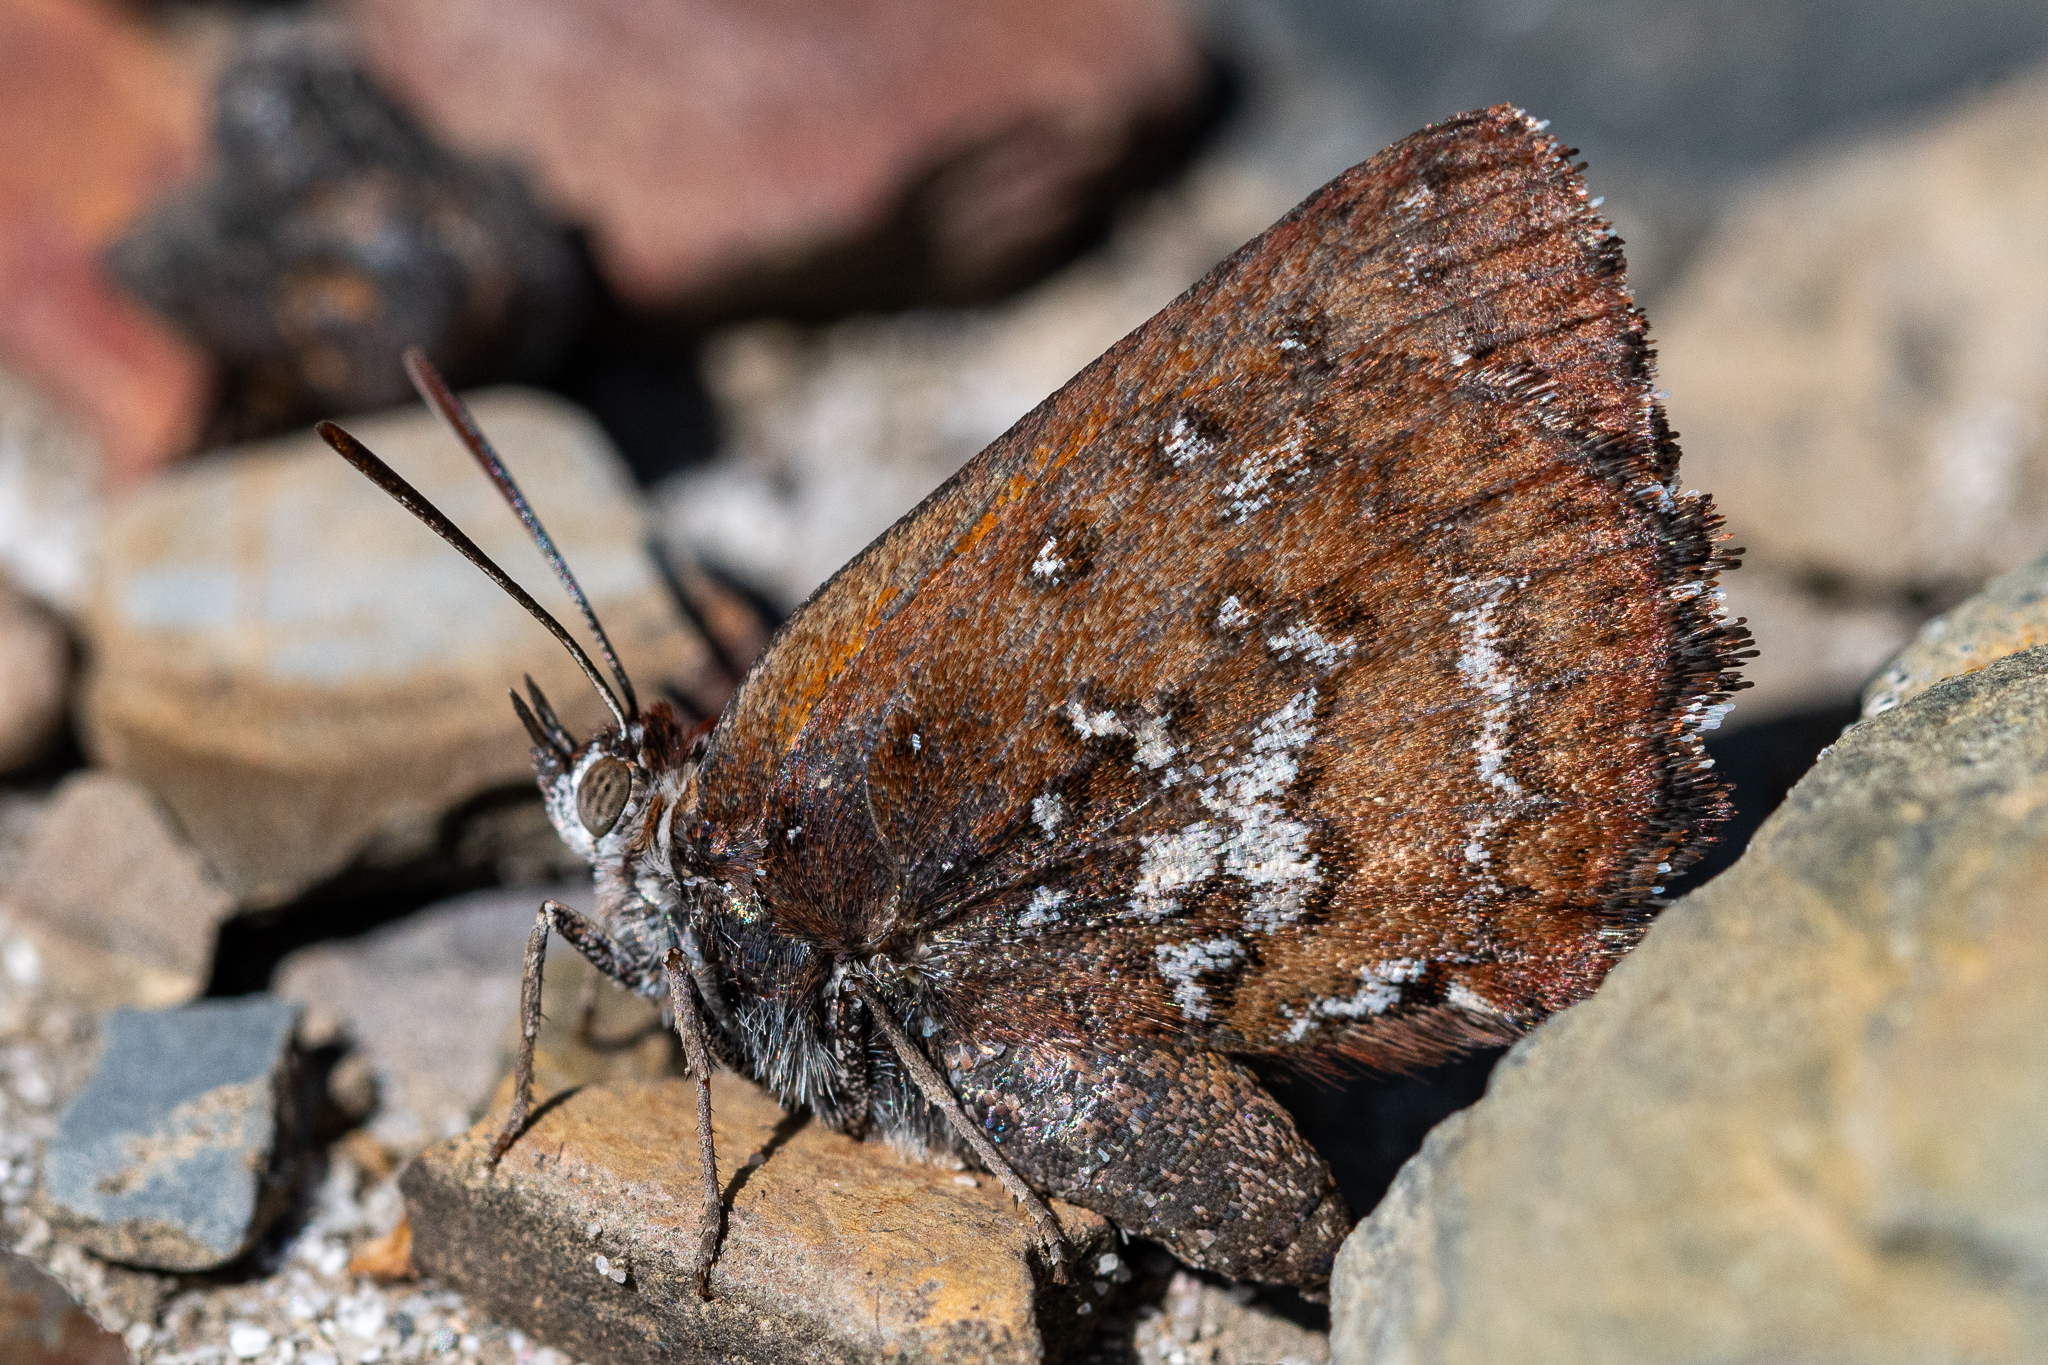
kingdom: Animalia
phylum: Arthropoda
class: Insecta
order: Lepidoptera
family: Lycaenidae
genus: Aloeides
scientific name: Aloeides thyra
